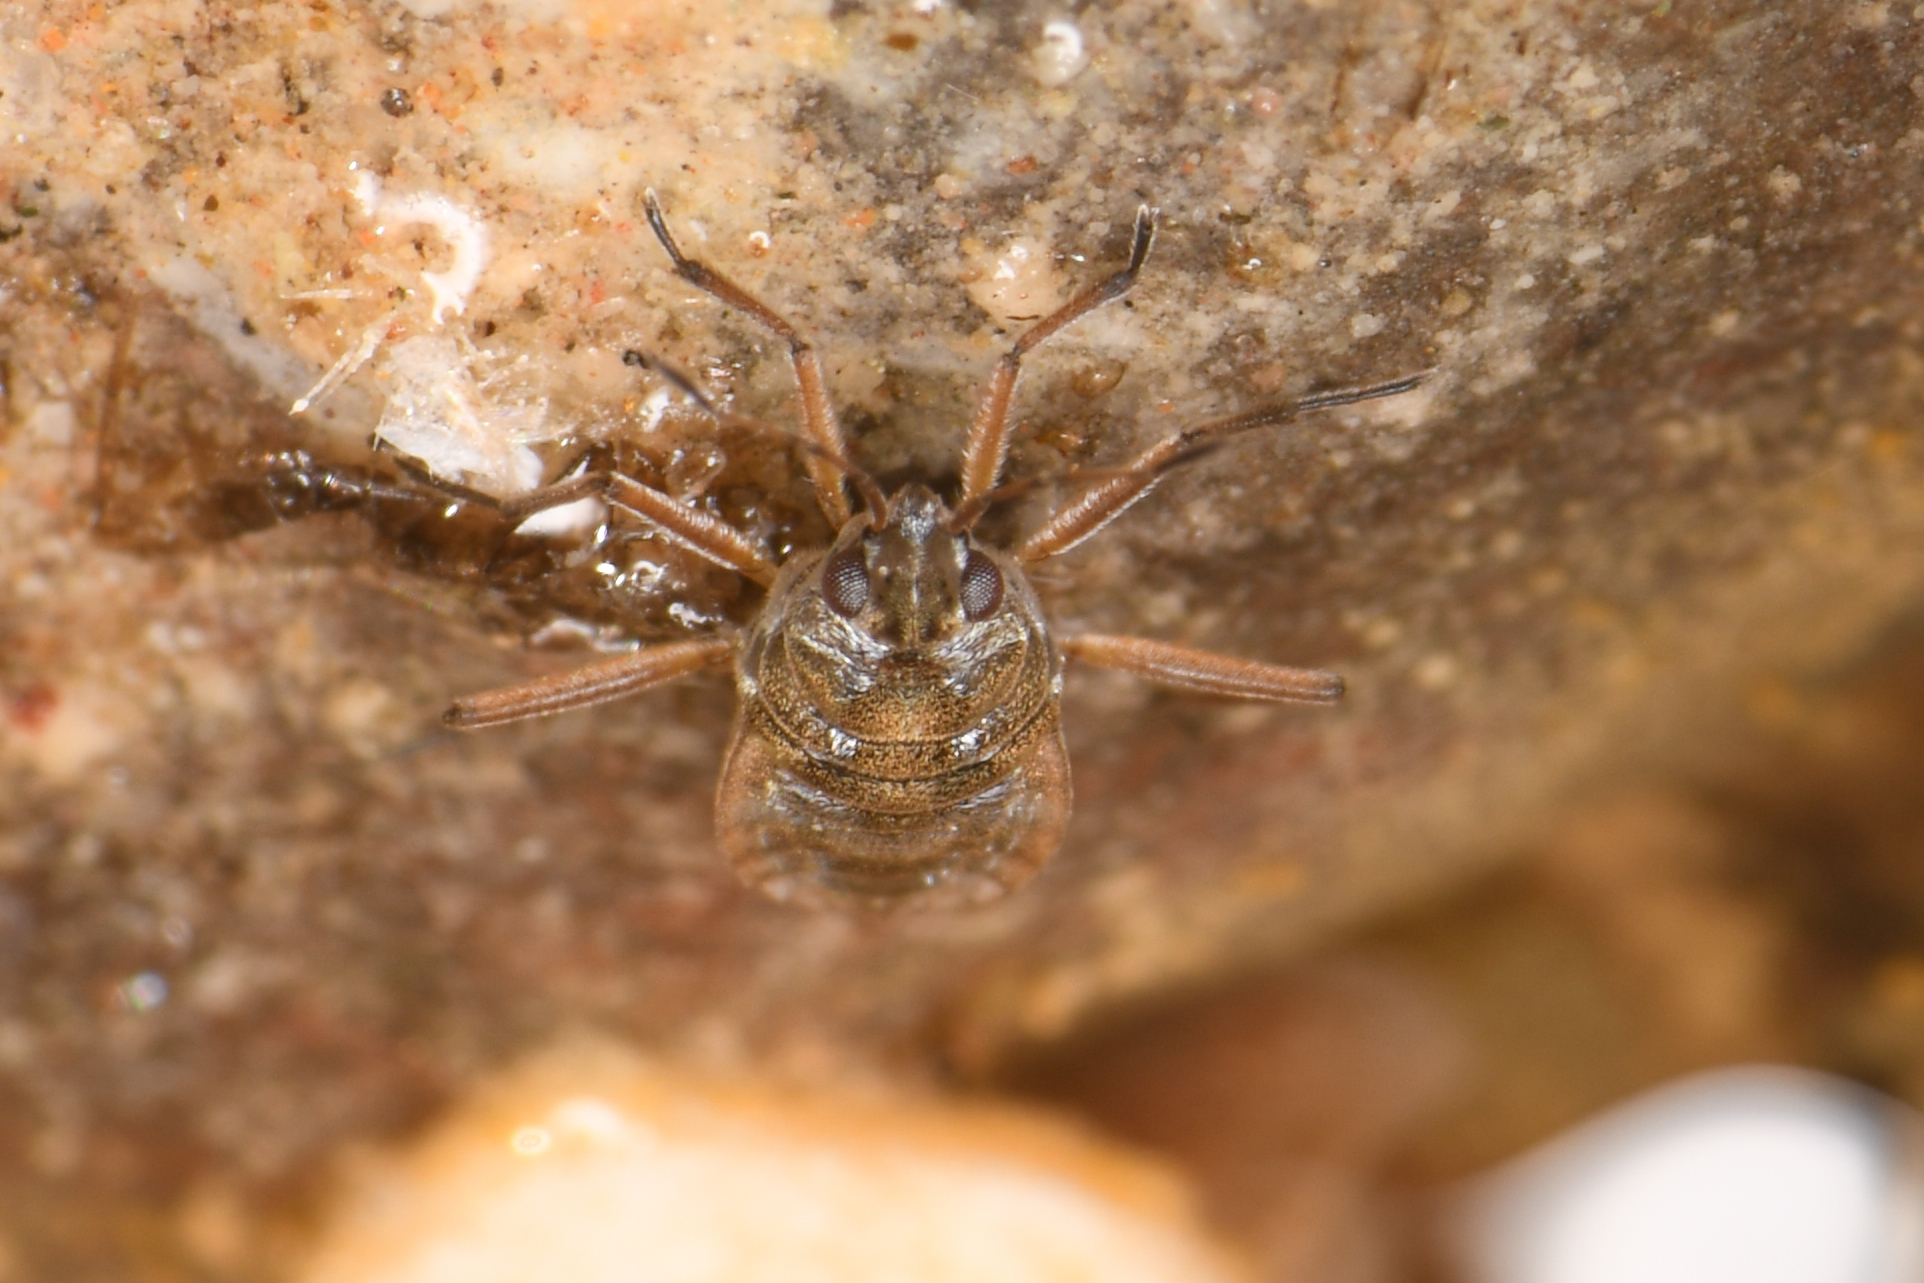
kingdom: Animalia
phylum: Arthropoda
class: Insecta
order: Hemiptera
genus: Kirkaldya
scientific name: Kirkaldya
